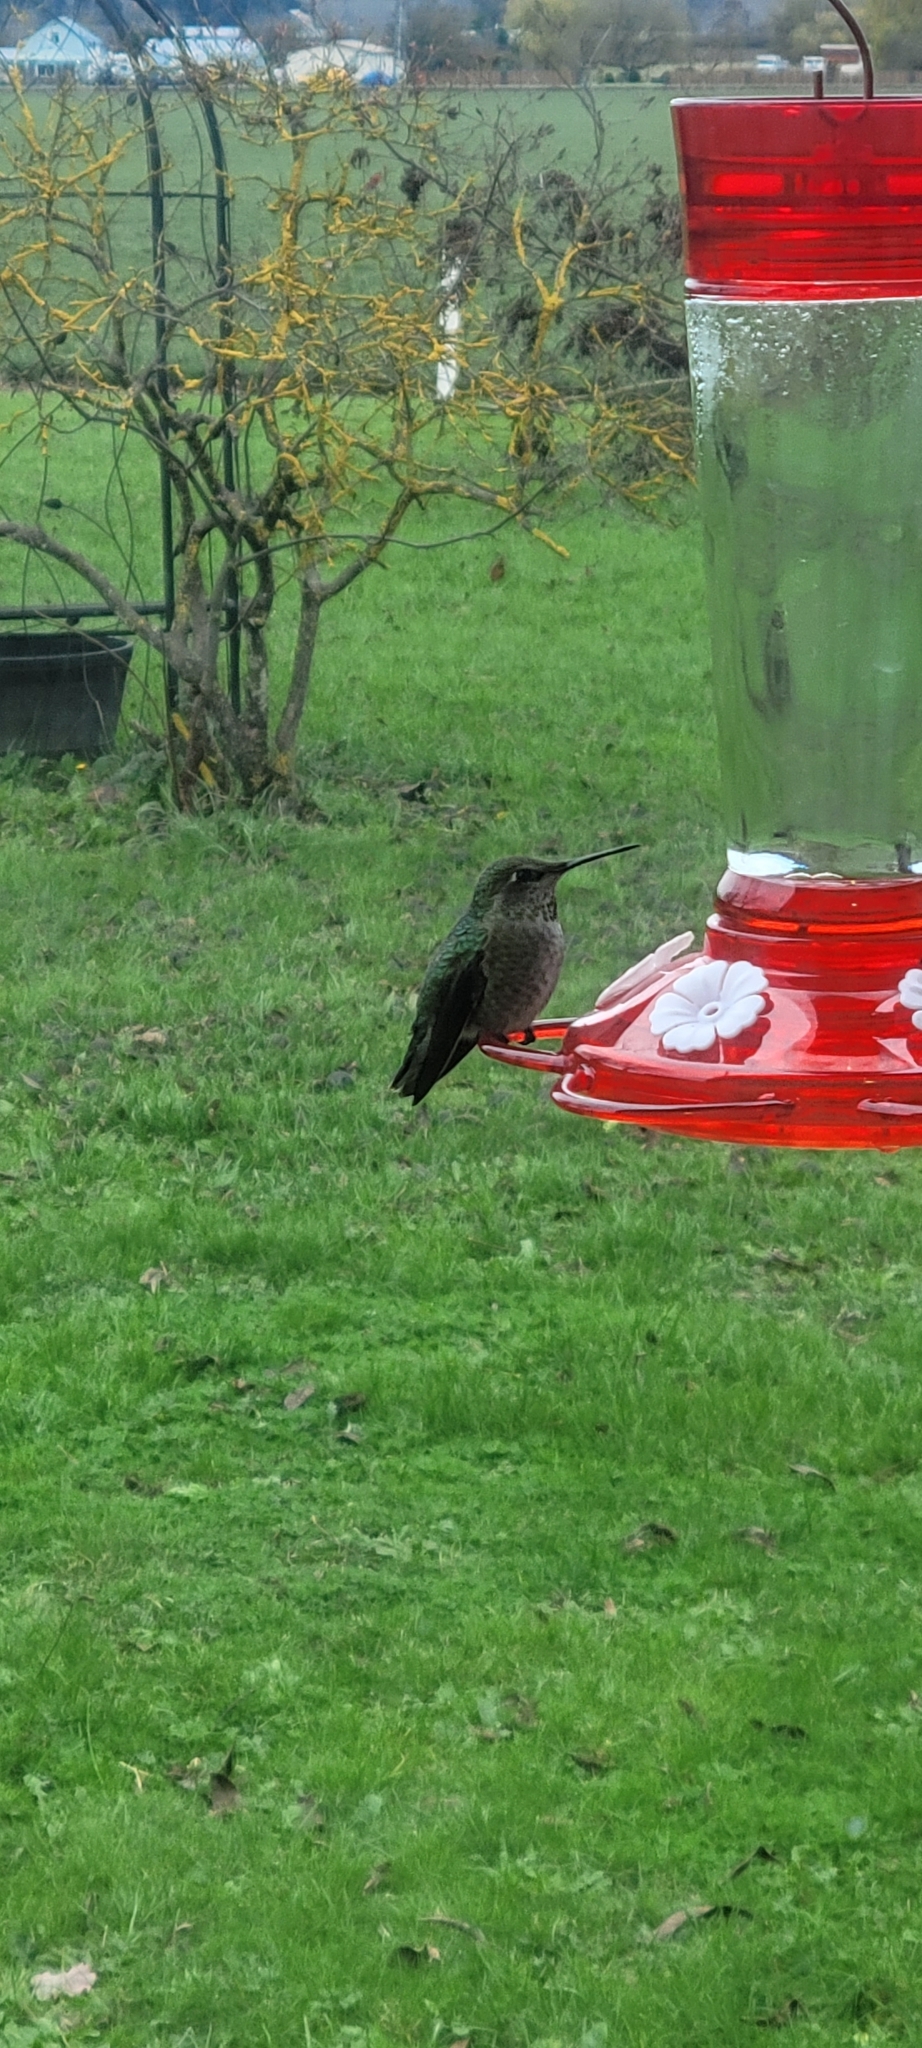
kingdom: Animalia
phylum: Chordata
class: Aves
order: Apodiformes
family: Trochilidae
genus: Calypte
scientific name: Calypte anna
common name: Anna's hummingbird
